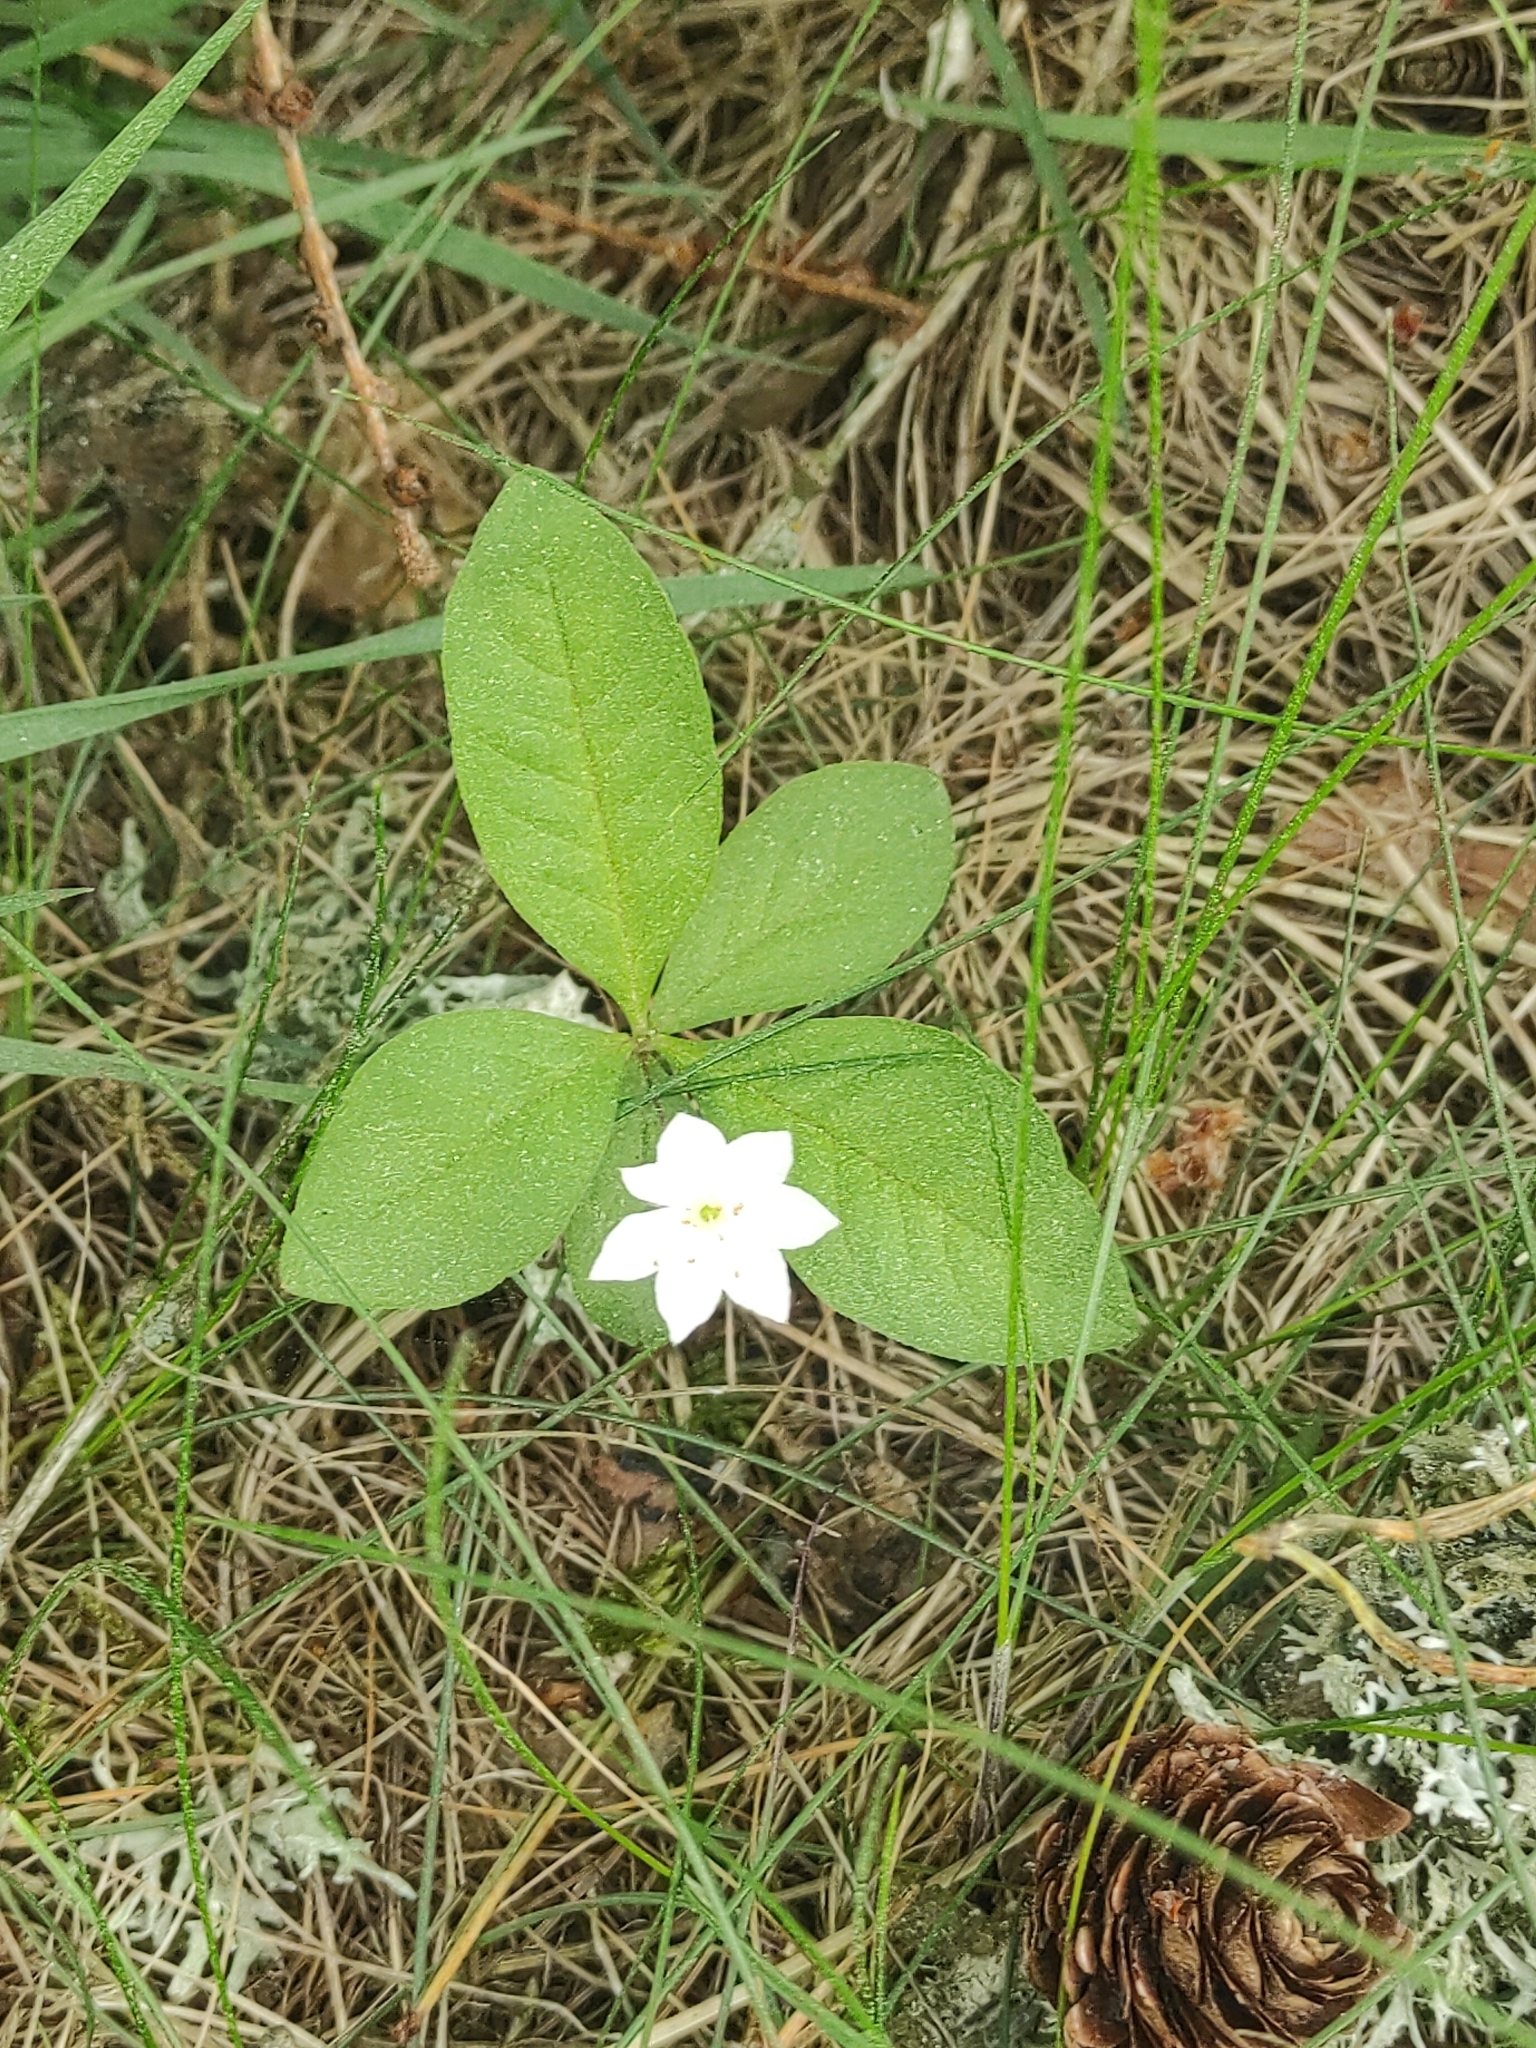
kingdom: Plantae
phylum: Tracheophyta
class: Magnoliopsida
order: Ericales
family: Primulaceae
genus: Lysimachia
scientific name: Lysimachia europaea
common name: Arctic starflower
